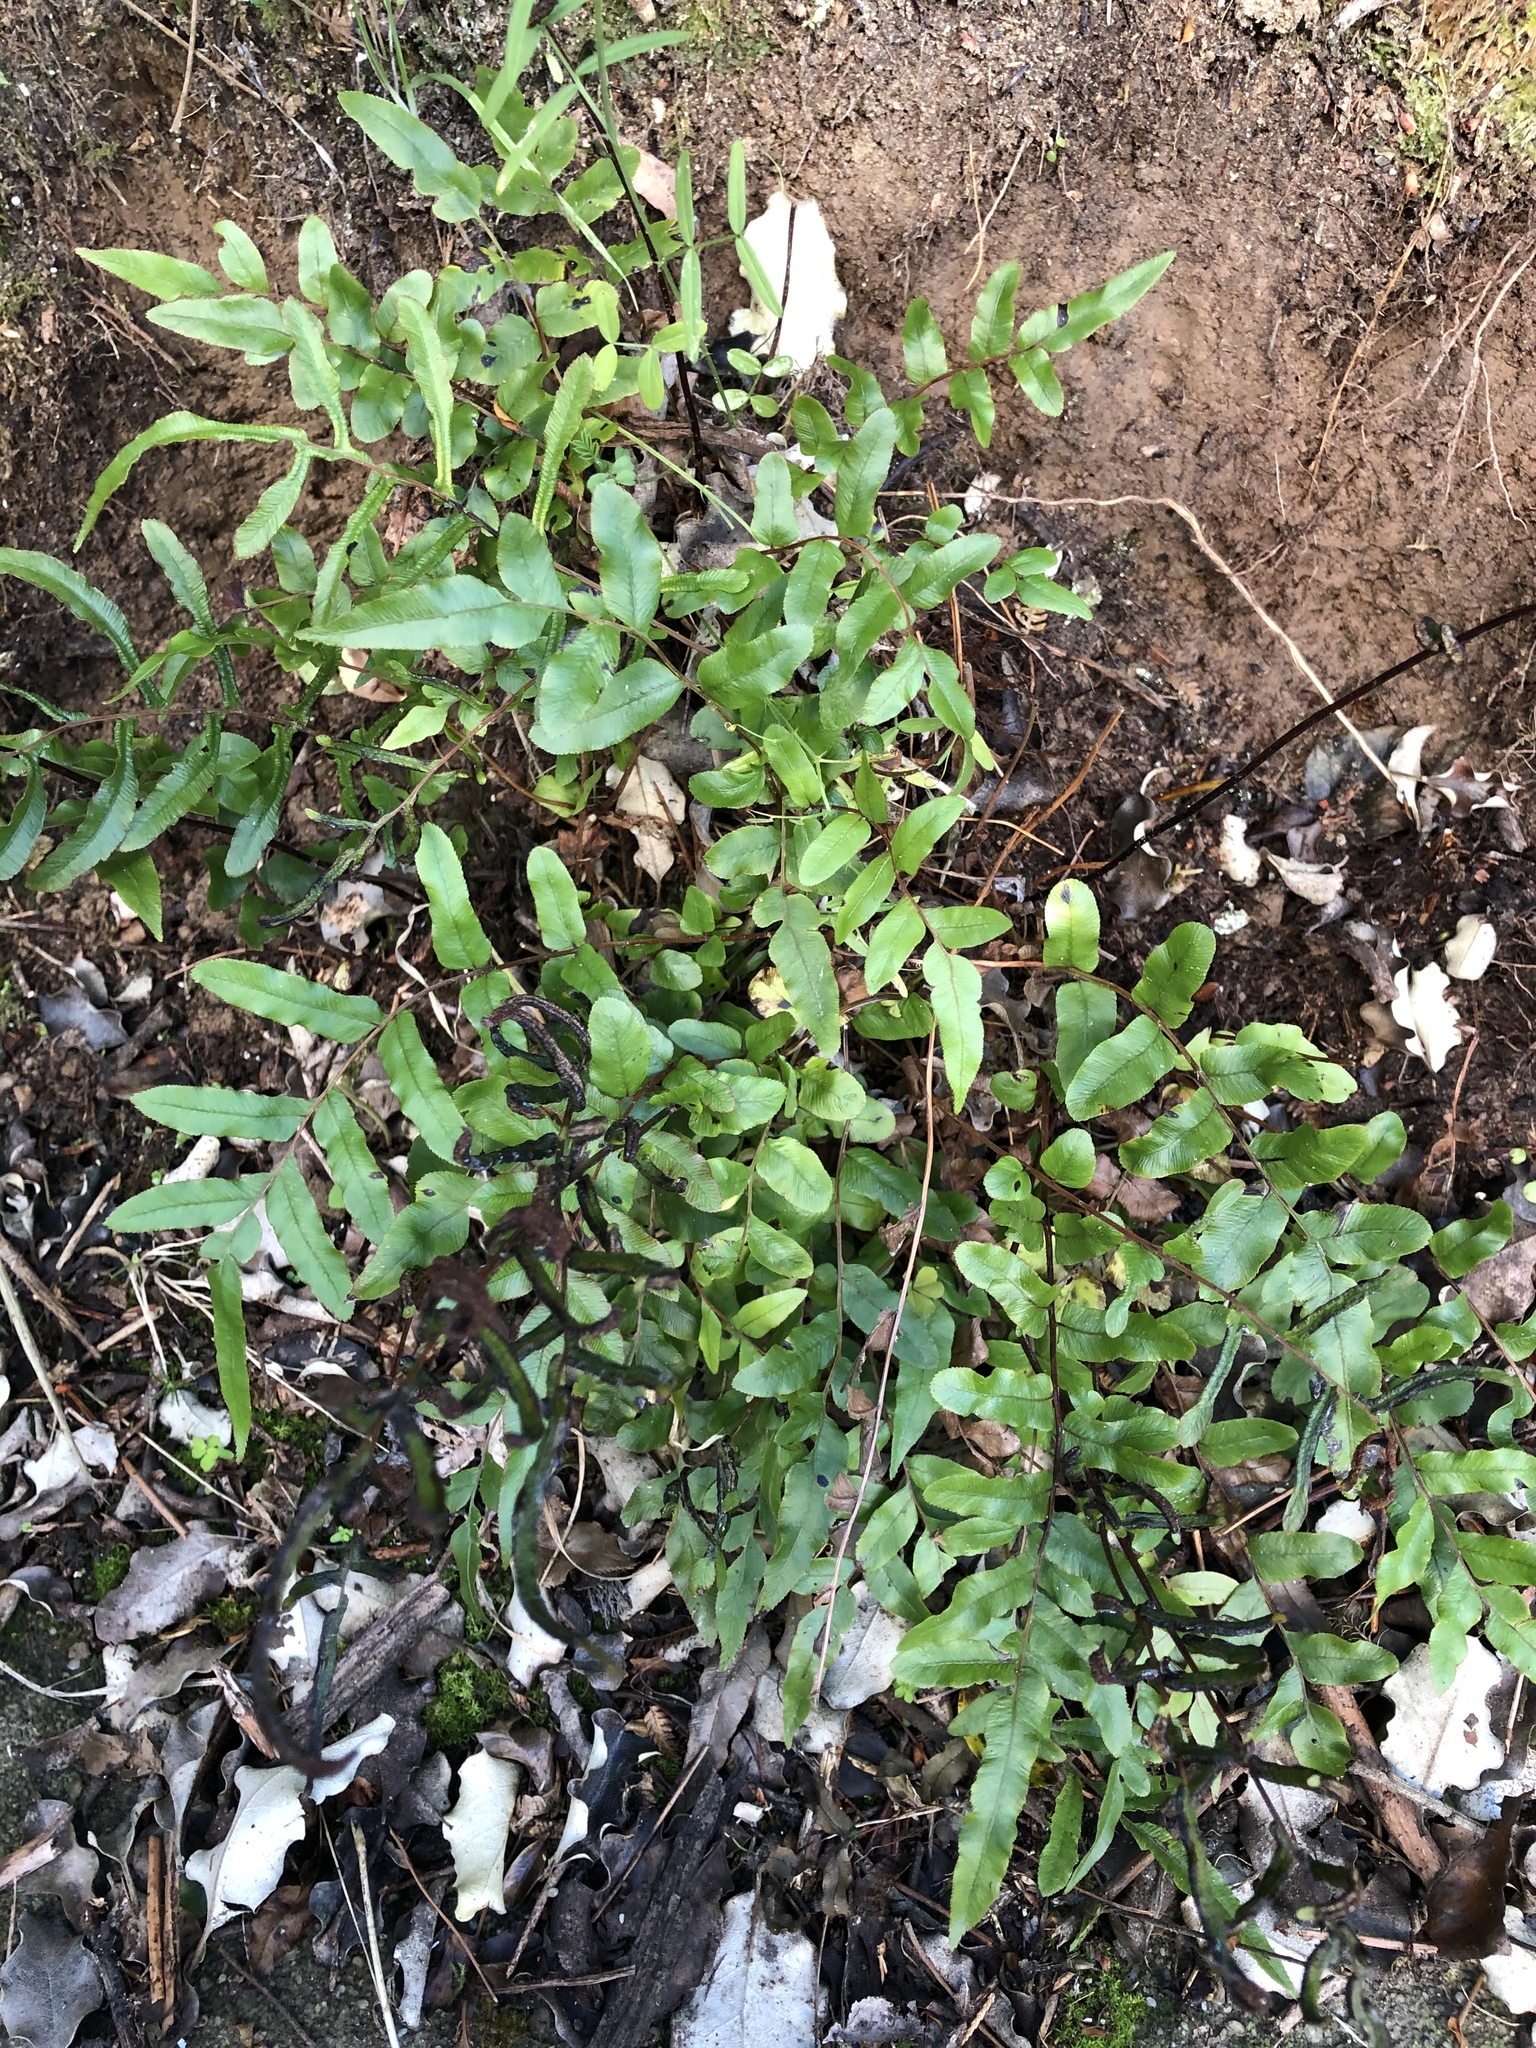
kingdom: Plantae
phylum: Tracheophyta
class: Polypodiopsida
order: Polypodiales
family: Blechnaceae
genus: Parablechnum
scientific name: Parablechnum minus
